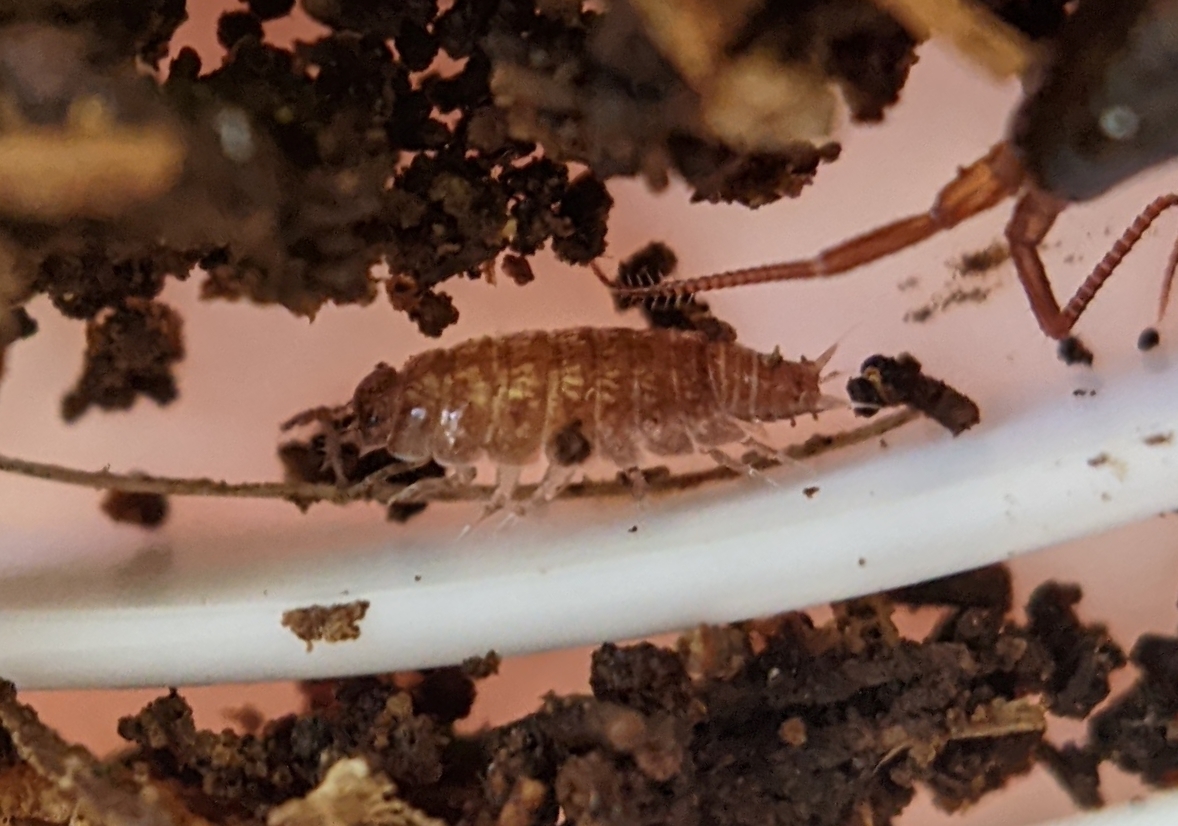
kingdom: Animalia
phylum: Arthropoda
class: Malacostraca
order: Isopoda
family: Trichoniscidae
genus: Trichoniscus
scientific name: Trichoniscus
